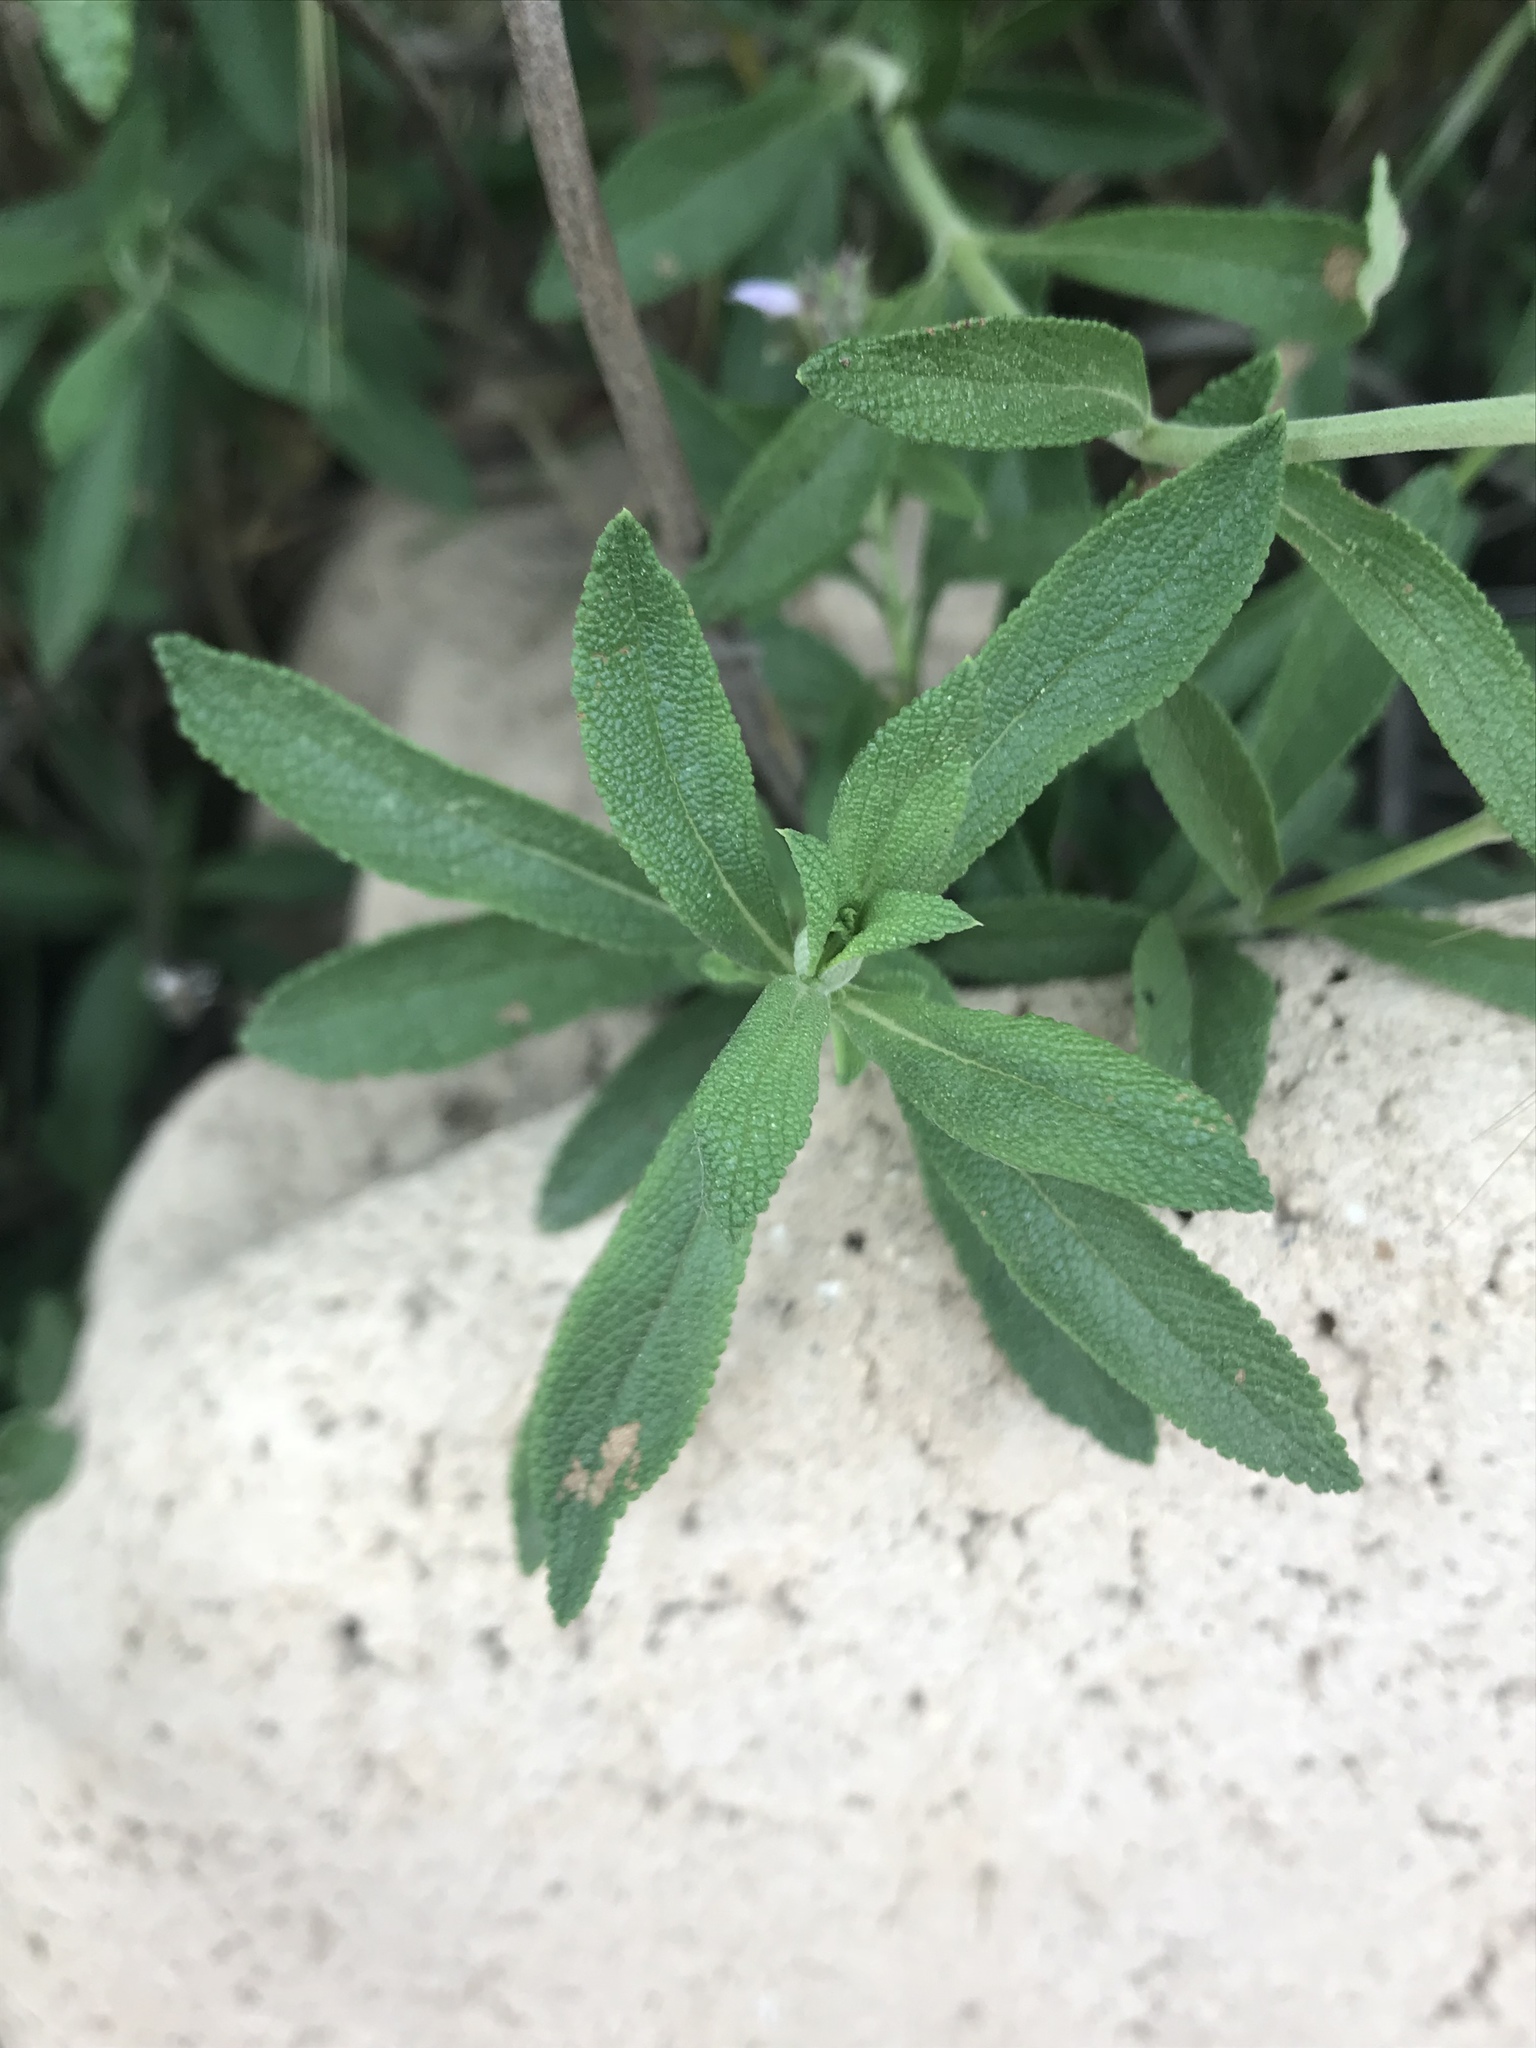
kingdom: Plantae
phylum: Tracheophyta
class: Magnoliopsida
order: Lamiales
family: Lamiaceae
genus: Salvia
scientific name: Salvia mellifera
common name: Black sage
